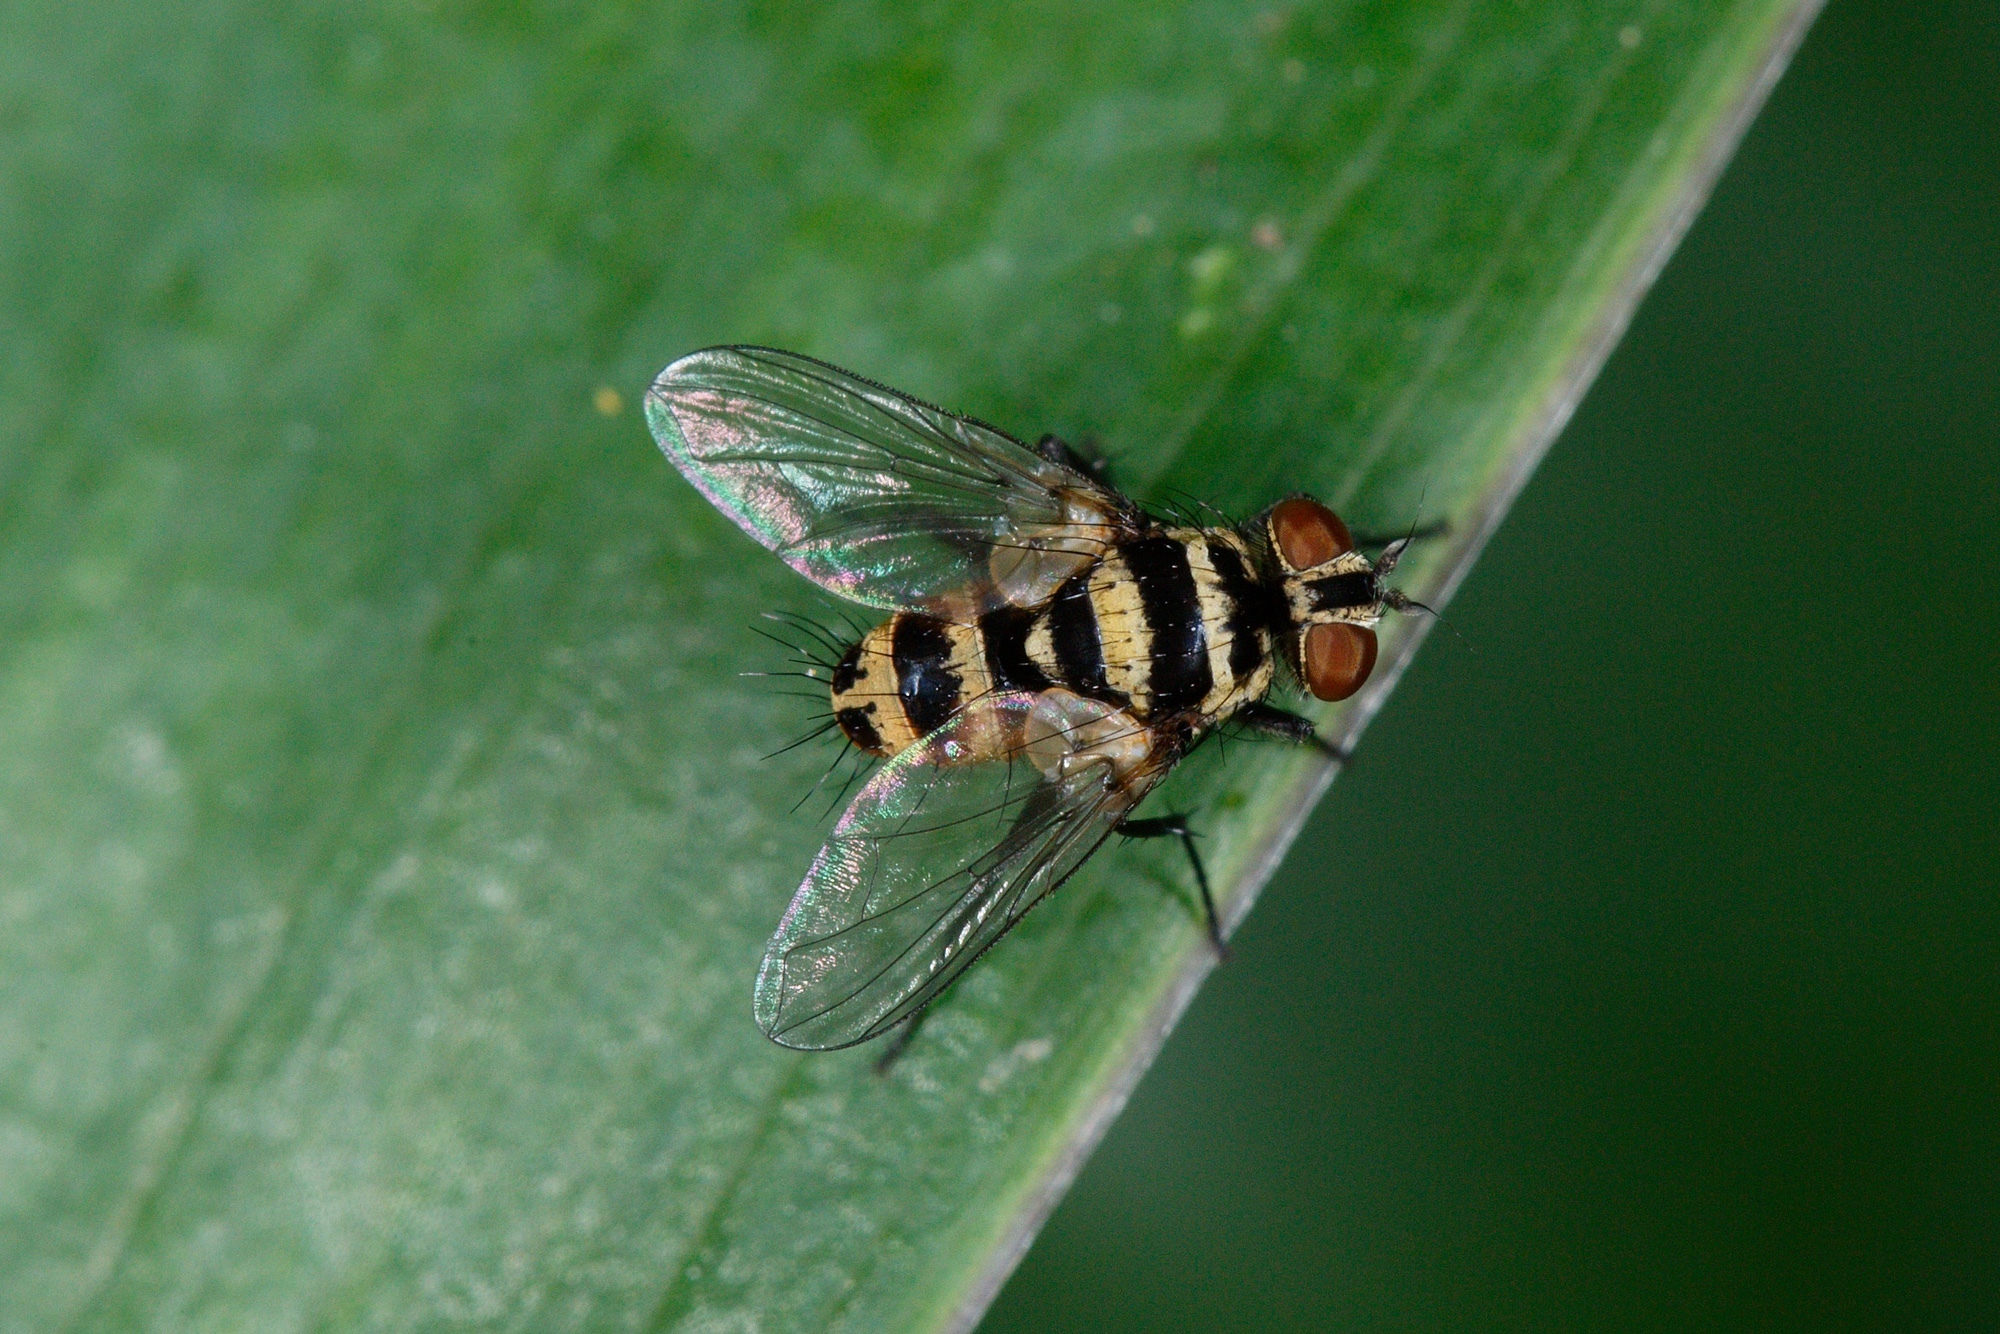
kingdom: Animalia
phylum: Arthropoda
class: Insecta
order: Diptera
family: Tachinidae
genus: Trigonospila
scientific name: Trigonospila brevifacies
